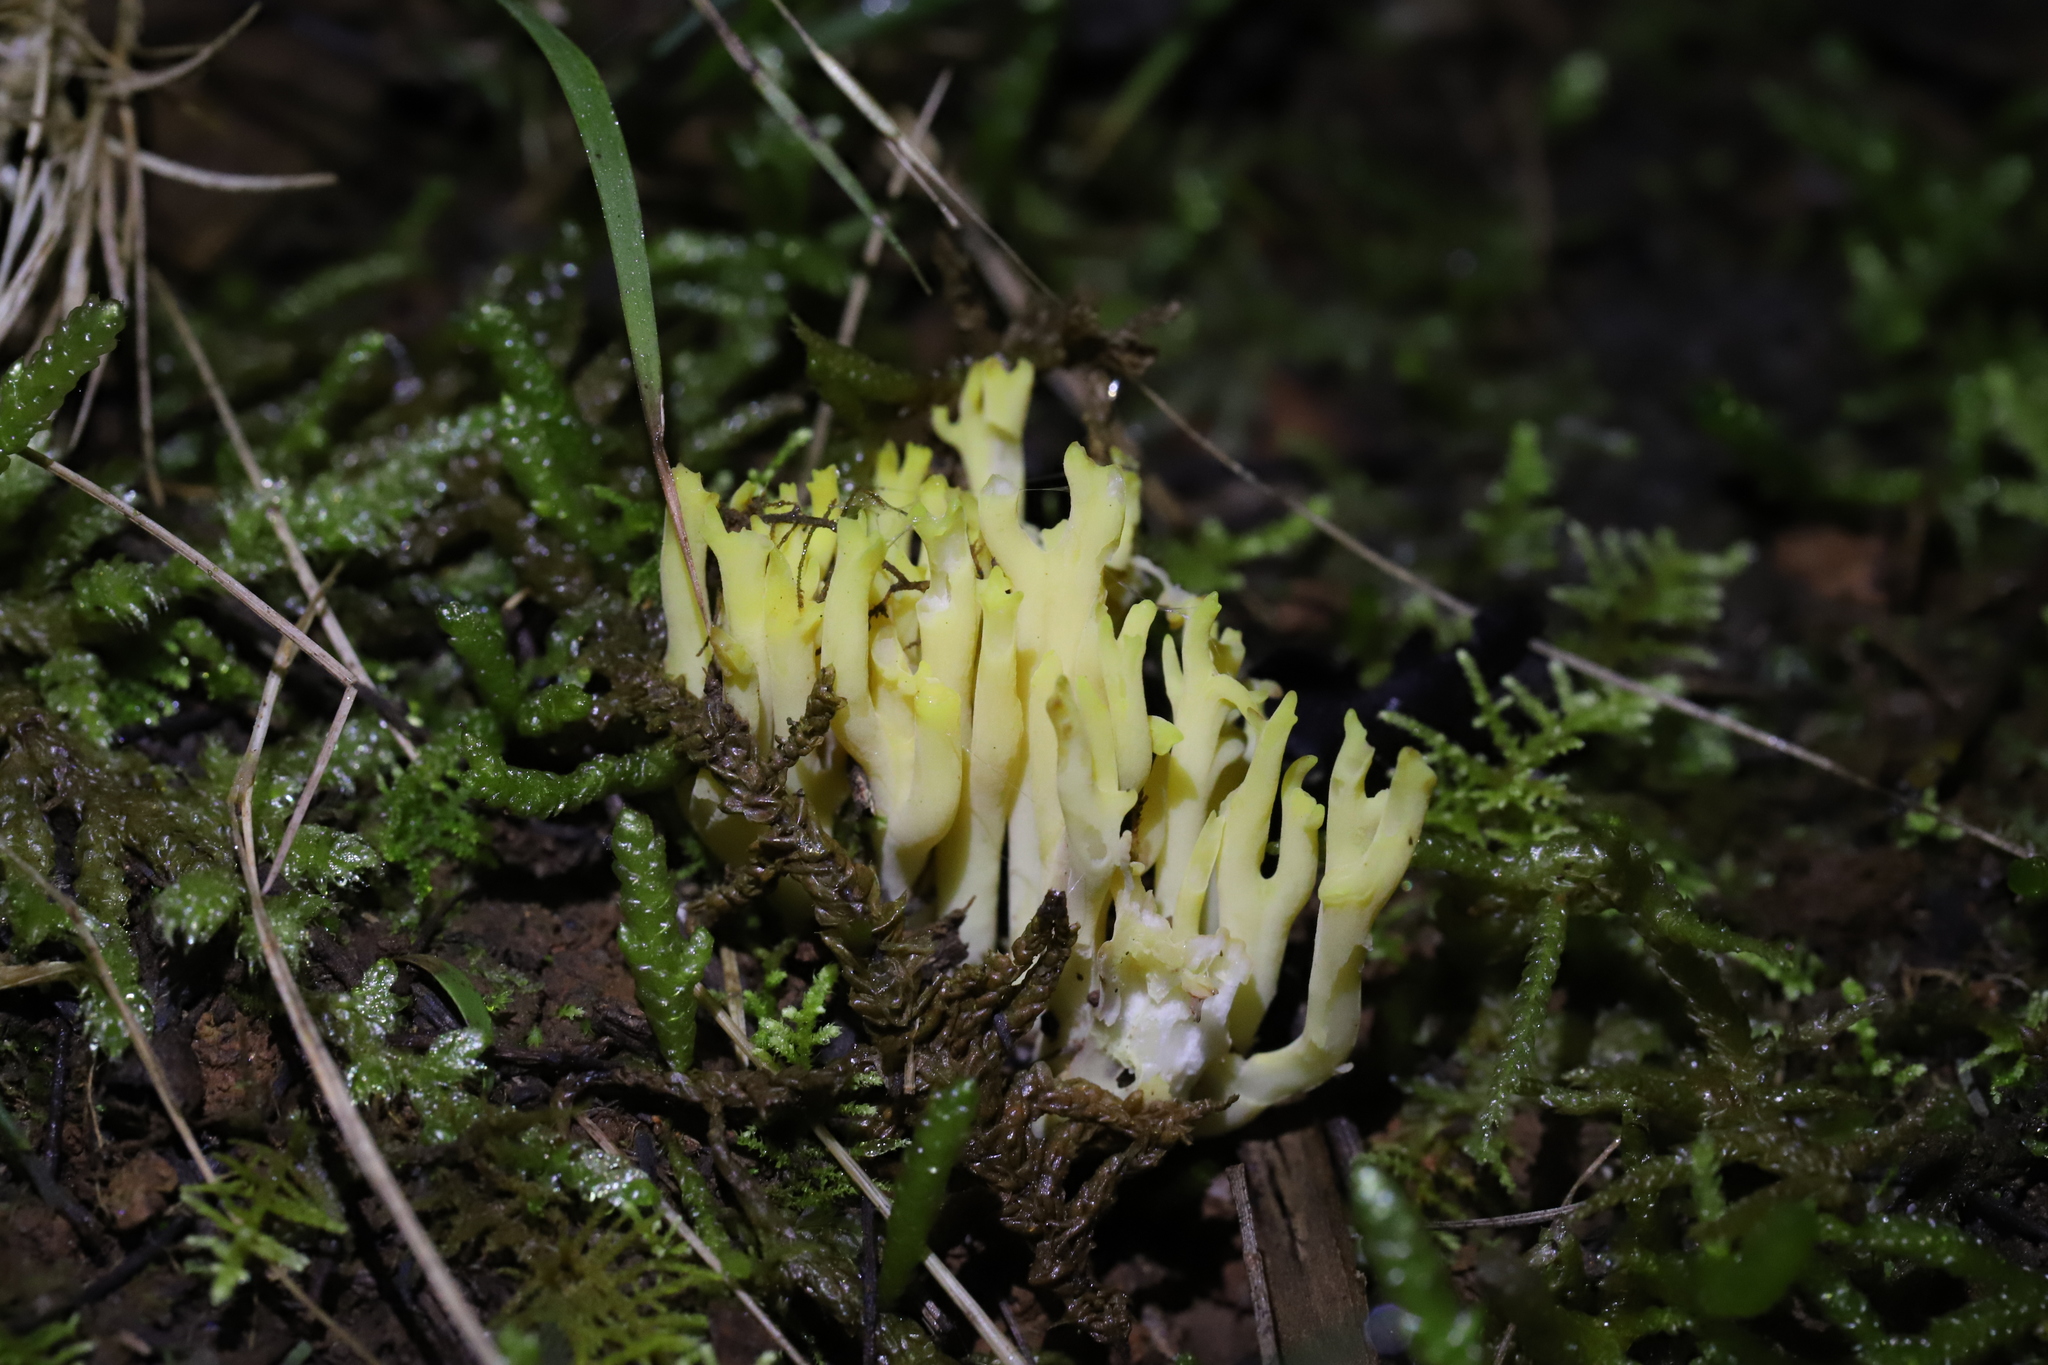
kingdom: Fungi
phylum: Basidiomycota
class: Agaricomycetes
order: Gomphales
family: Gomphaceae
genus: Ramaria
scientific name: Ramaria lorithamnus
